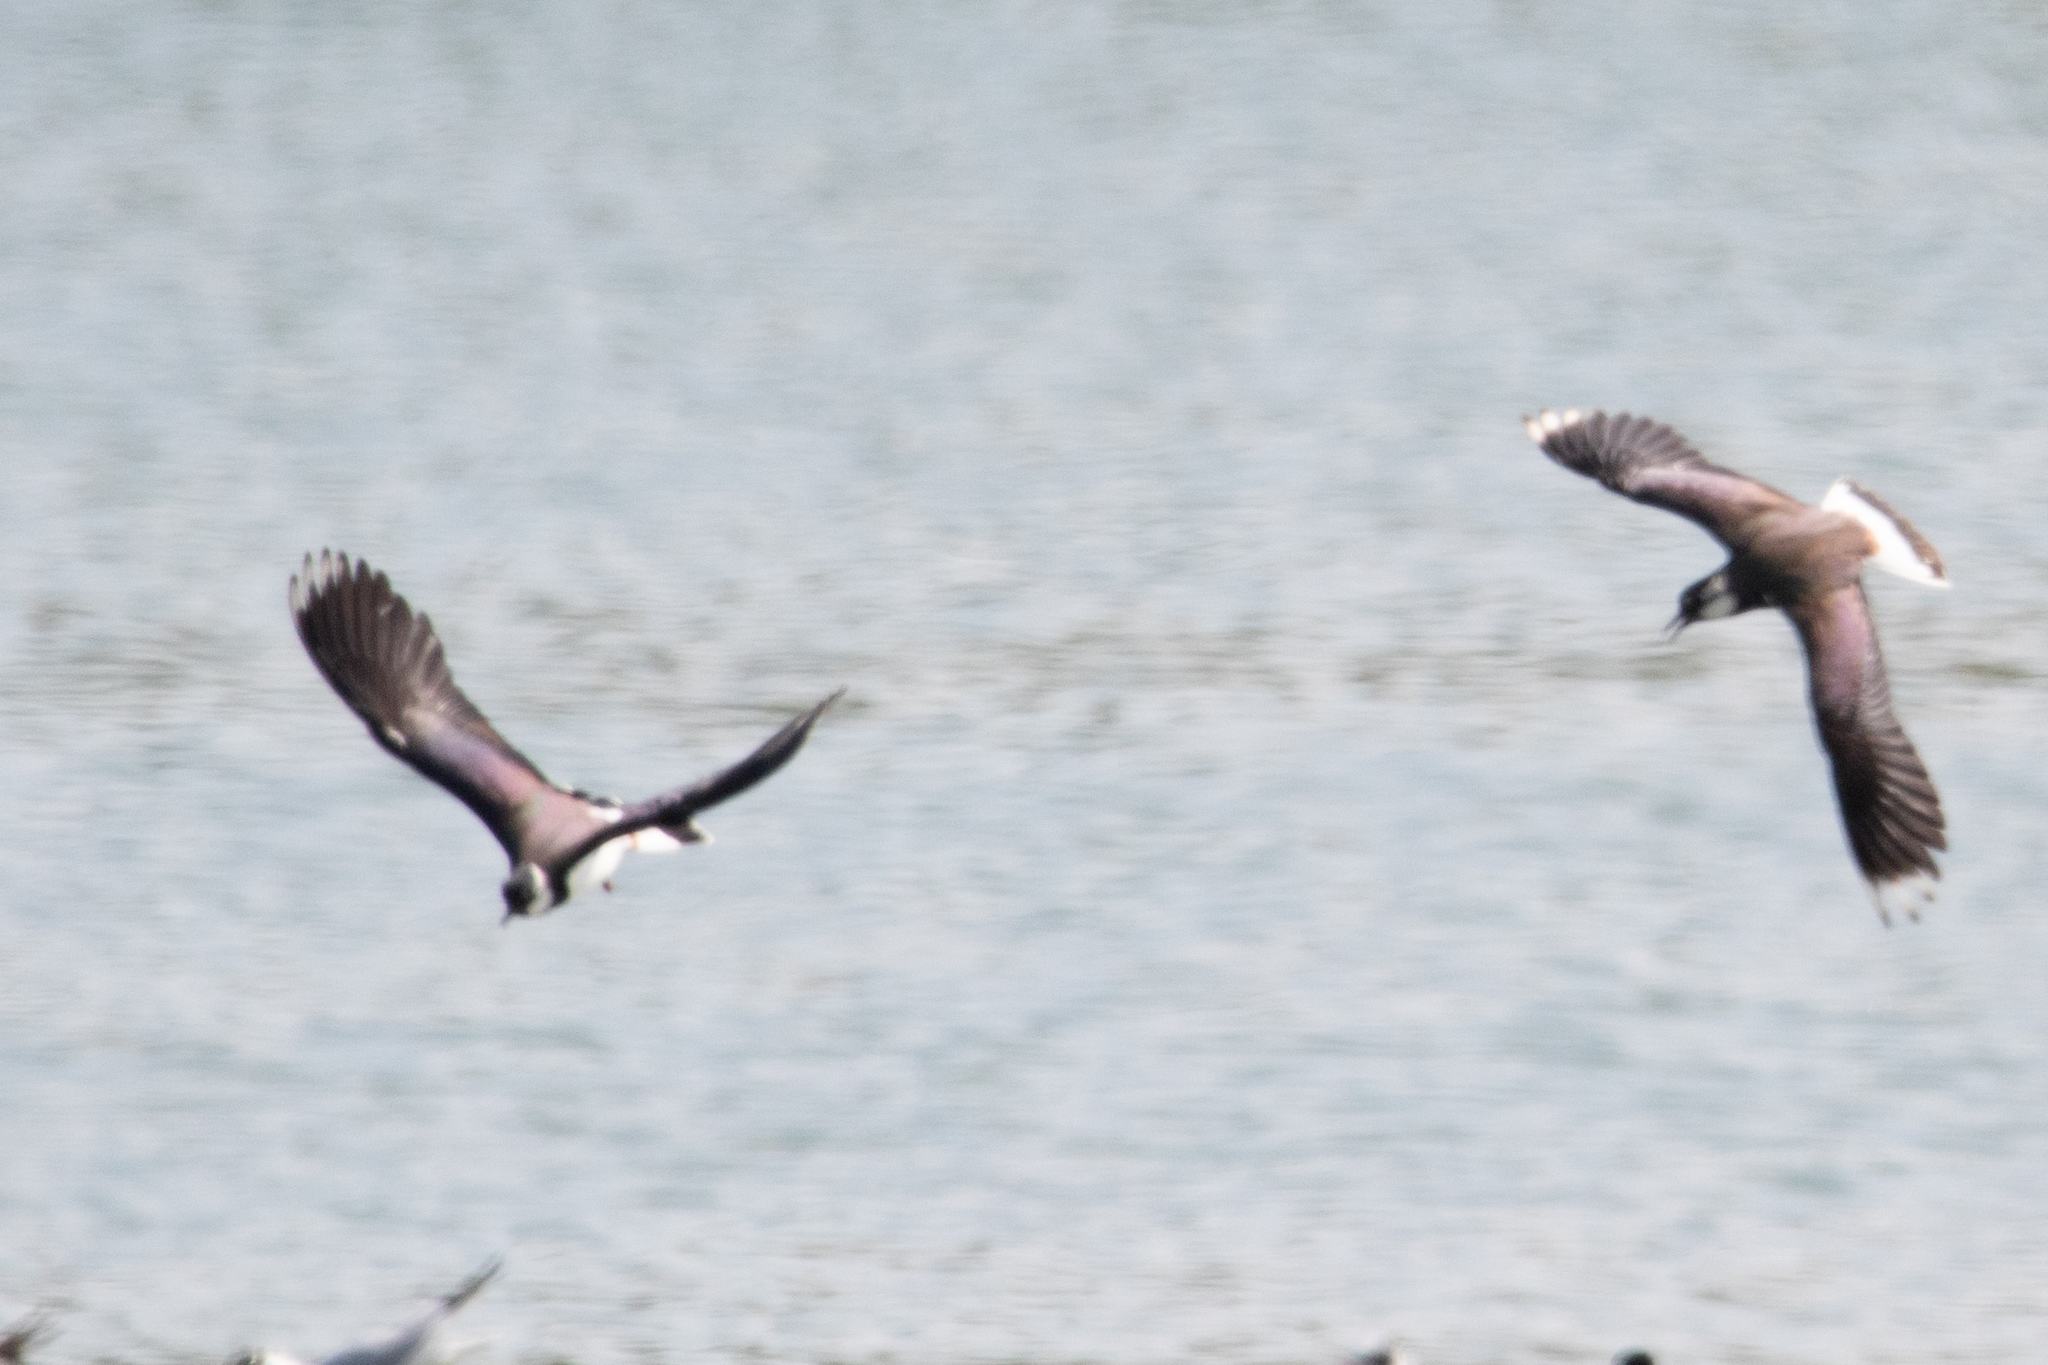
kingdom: Animalia
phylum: Chordata
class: Aves
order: Charadriiformes
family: Charadriidae
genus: Vanellus
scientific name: Vanellus vanellus
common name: Northern lapwing
